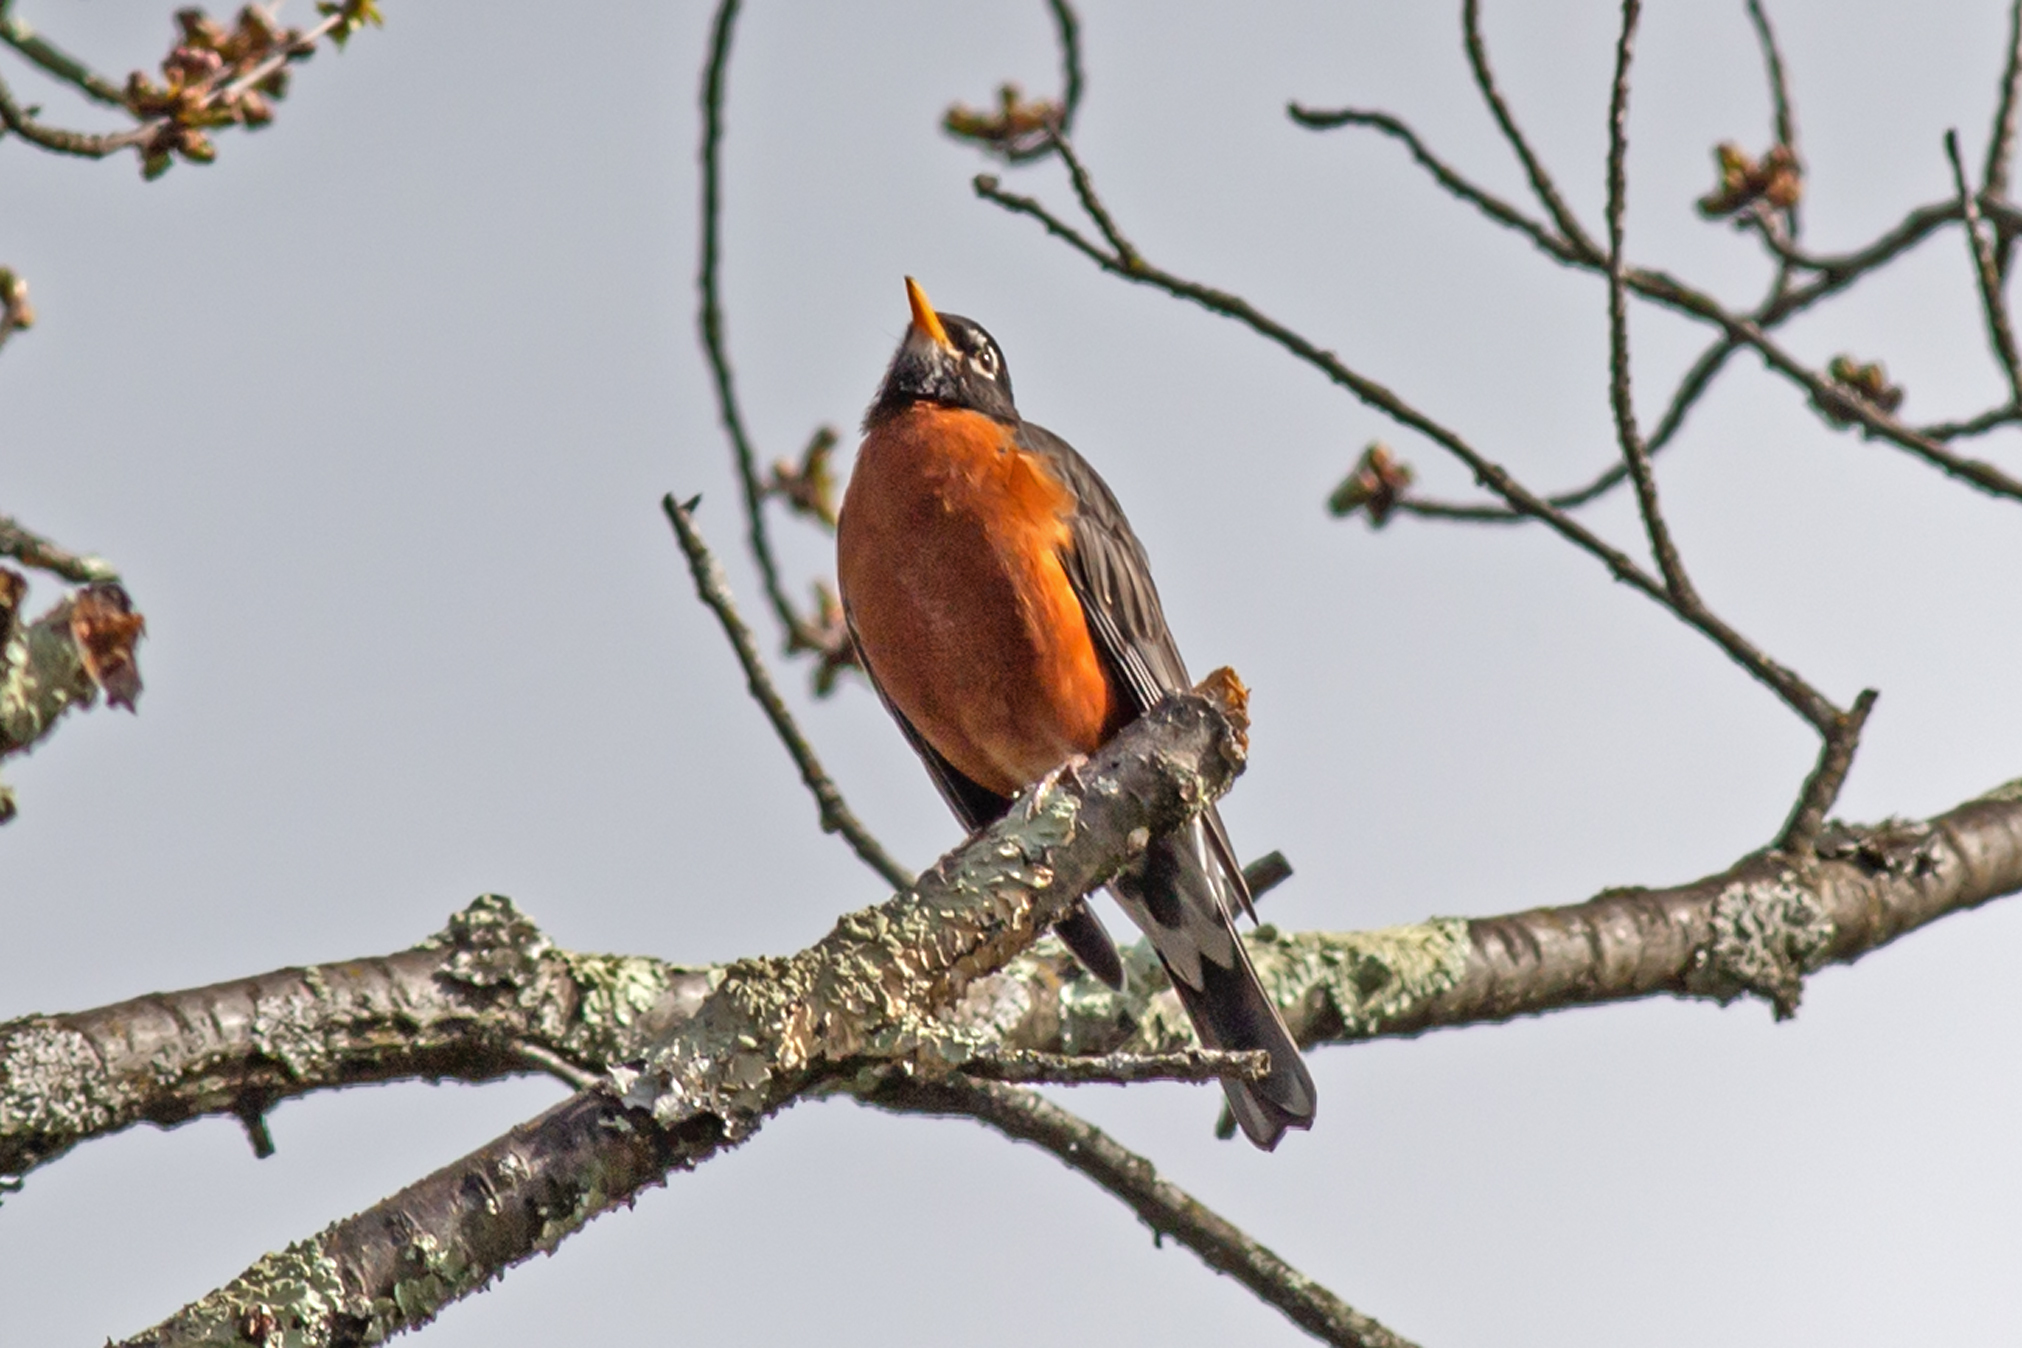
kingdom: Animalia
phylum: Chordata
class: Aves
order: Passeriformes
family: Turdidae
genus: Turdus
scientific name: Turdus migratorius
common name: American robin
